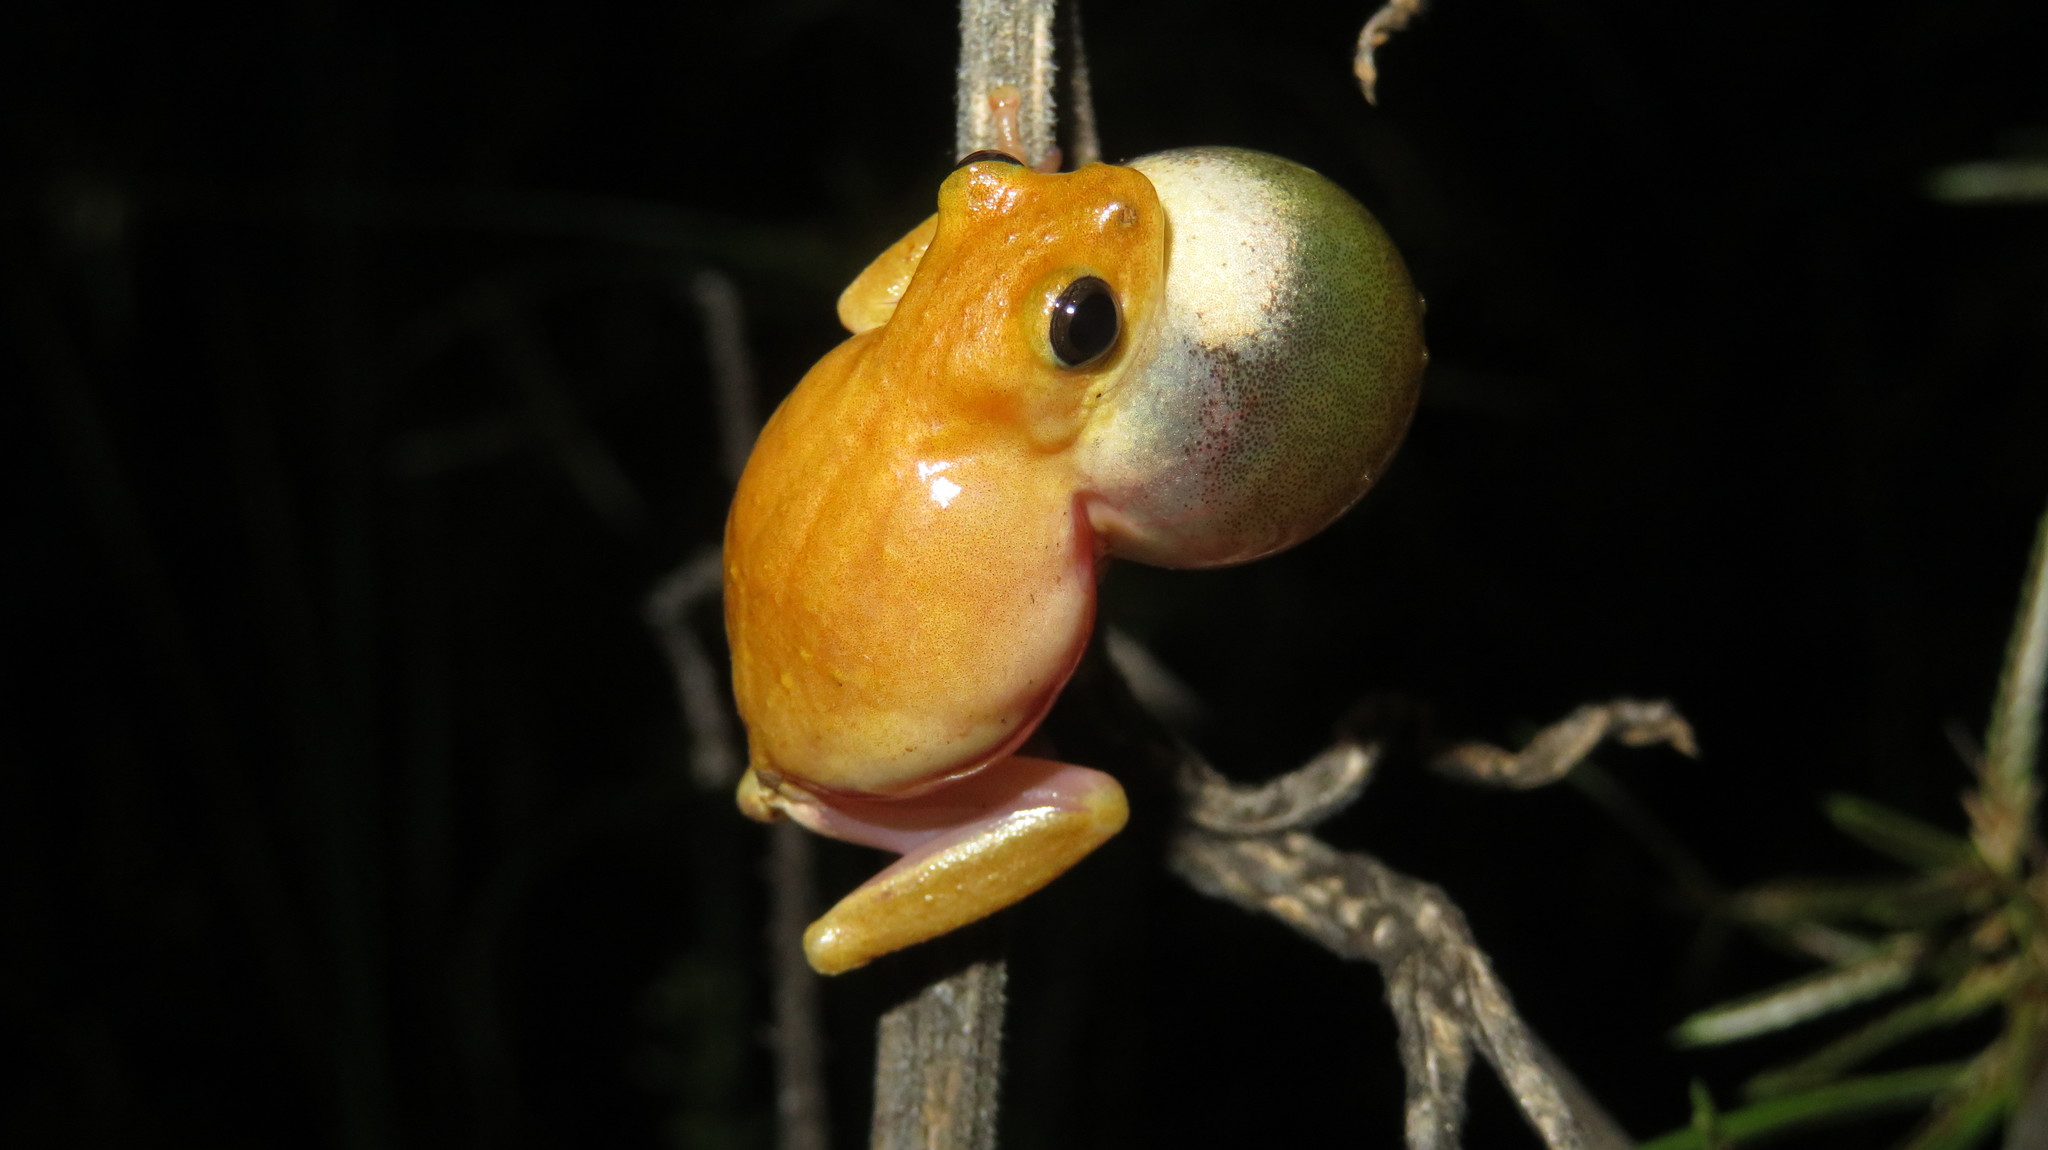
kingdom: Animalia
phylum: Chordata
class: Amphibia
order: Anura
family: Hyperoliidae
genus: Hyperolius
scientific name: Hyperolius viridiflavus
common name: Common reed frog
